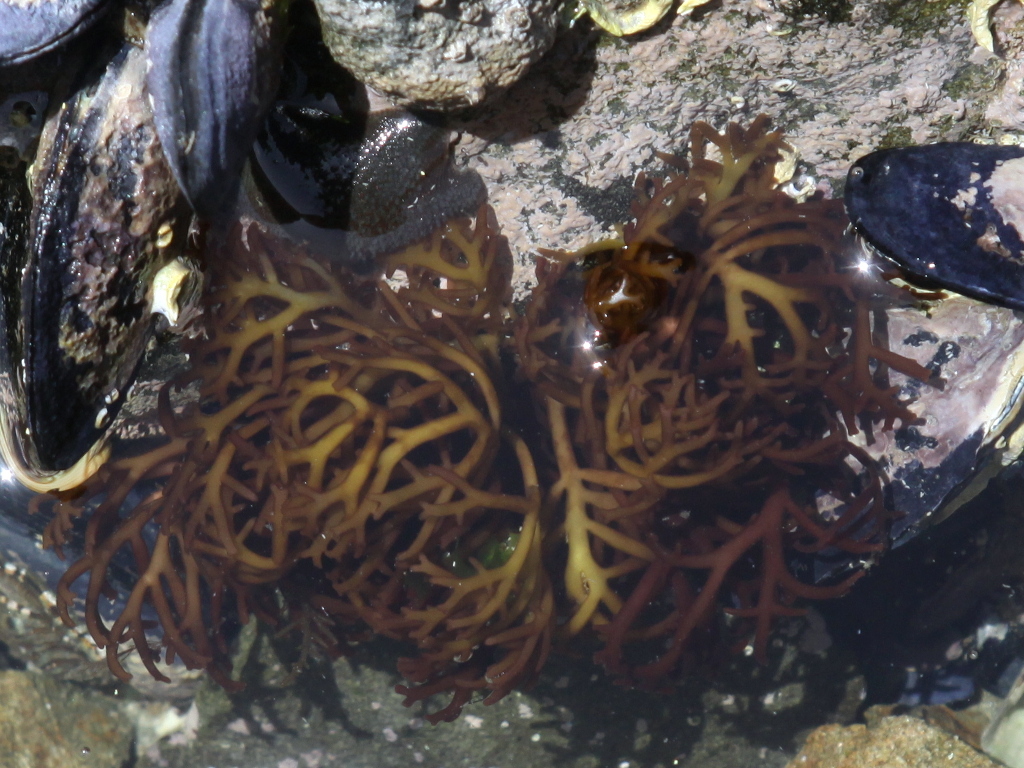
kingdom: Plantae
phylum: Rhodophyta
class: Florideophyceae
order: Gigartinales
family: Gigartinaceae
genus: Gigartina
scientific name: Gigartina clavifera
